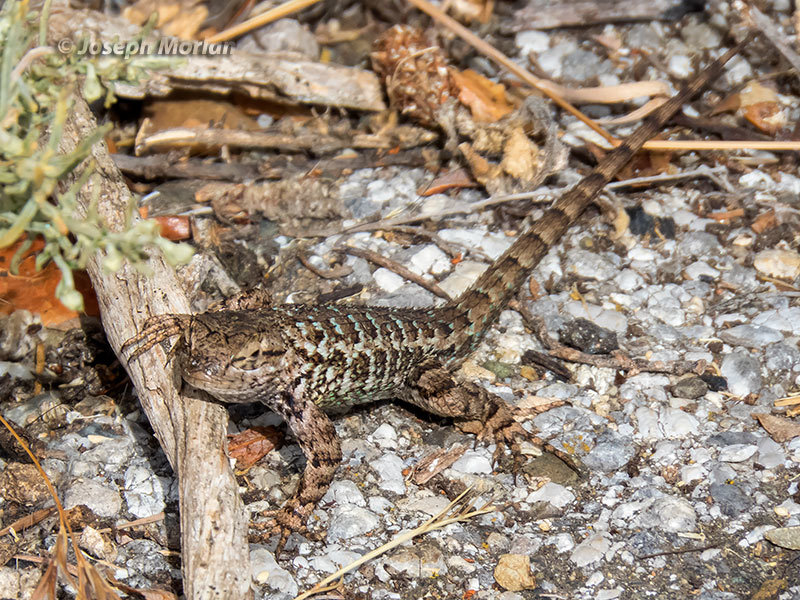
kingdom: Animalia
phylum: Chordata
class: Squamata
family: Phrynosomatidae
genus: Sceloporus
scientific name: Sceloporus occidentalis
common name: Western fence lizard
